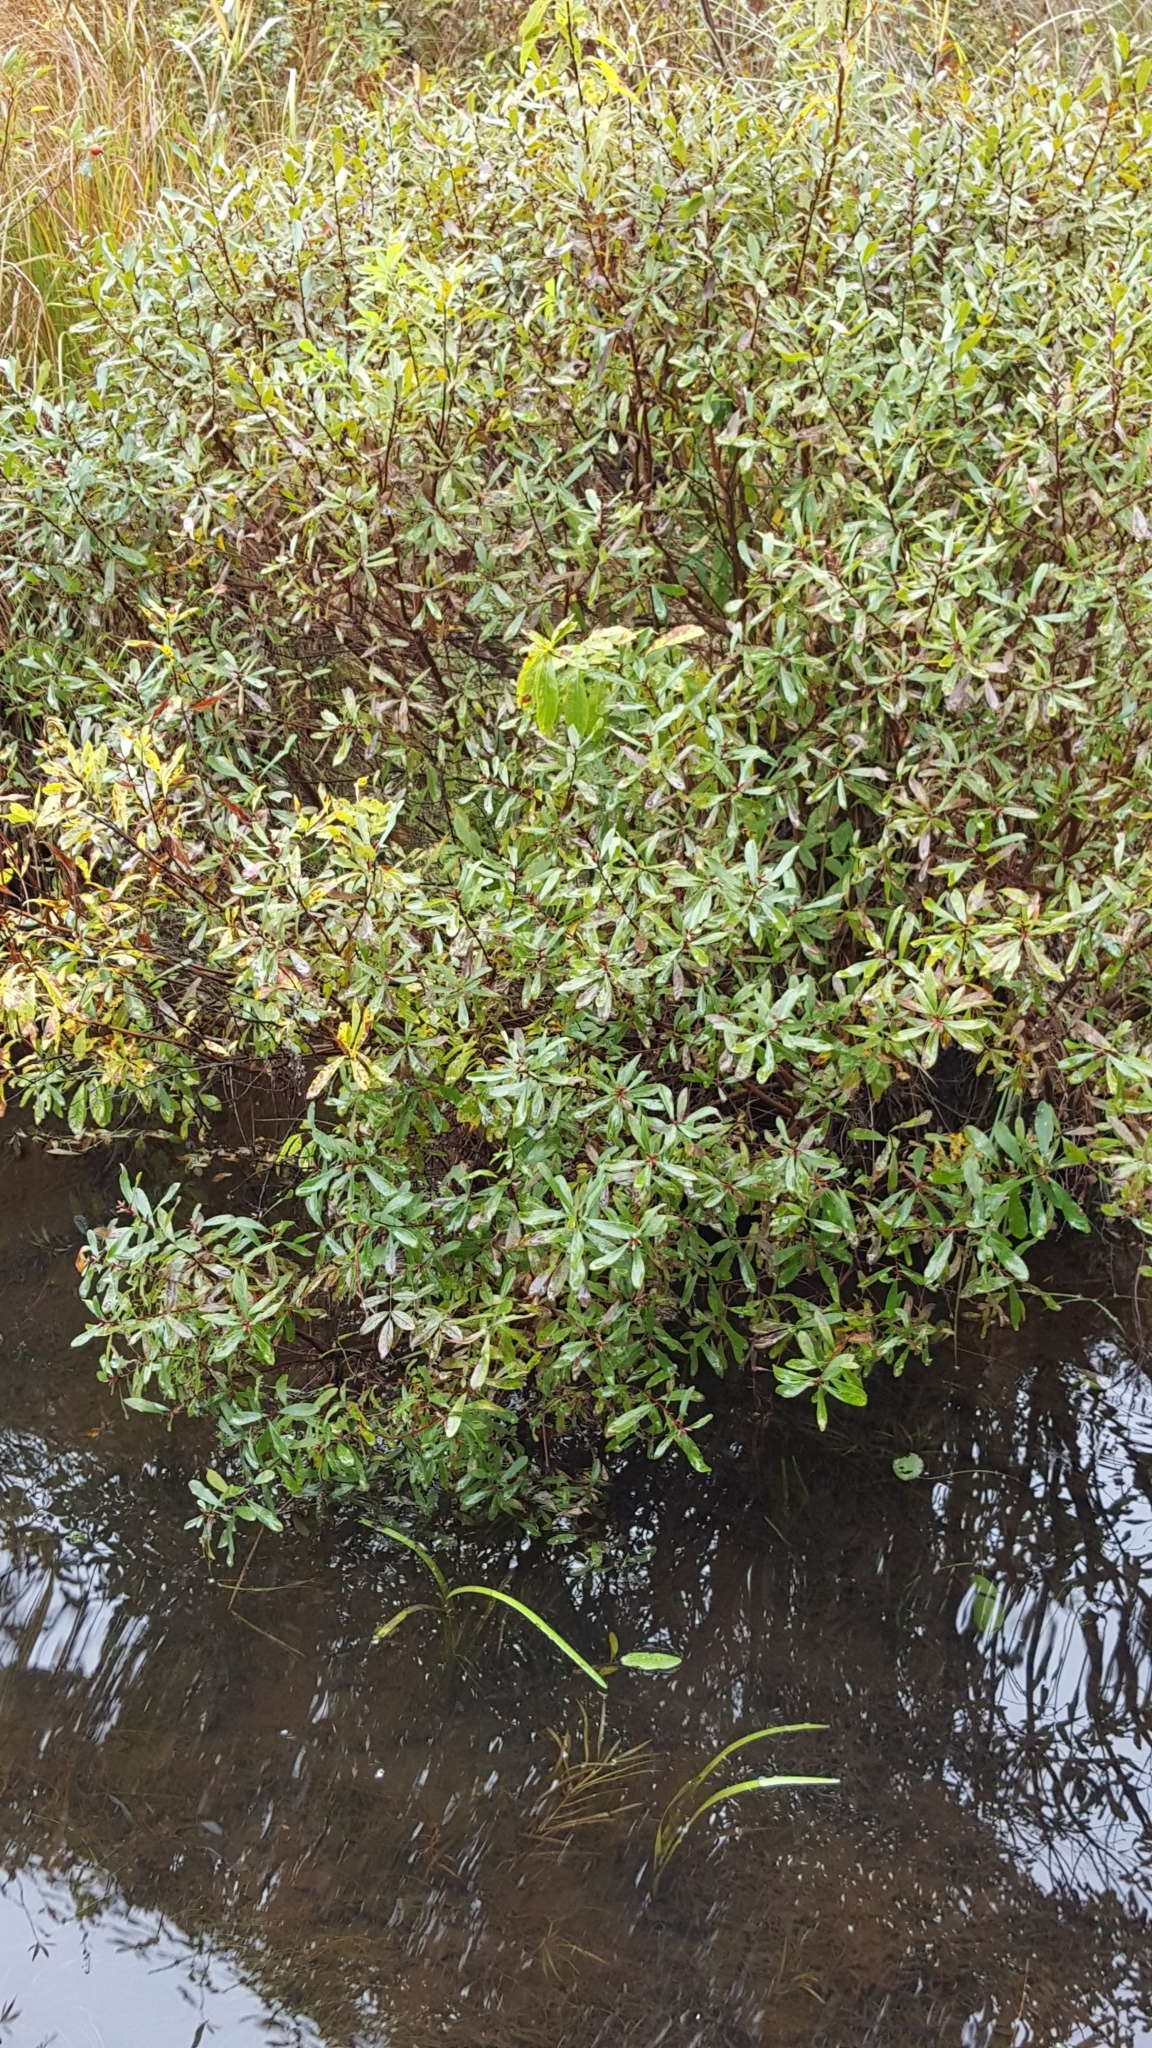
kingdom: Plantae
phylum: Tracheophyta
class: Magnoliopsida
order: Fagales
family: Myricaceae
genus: Myrica
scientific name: Myrica gale
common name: Sweet gale
